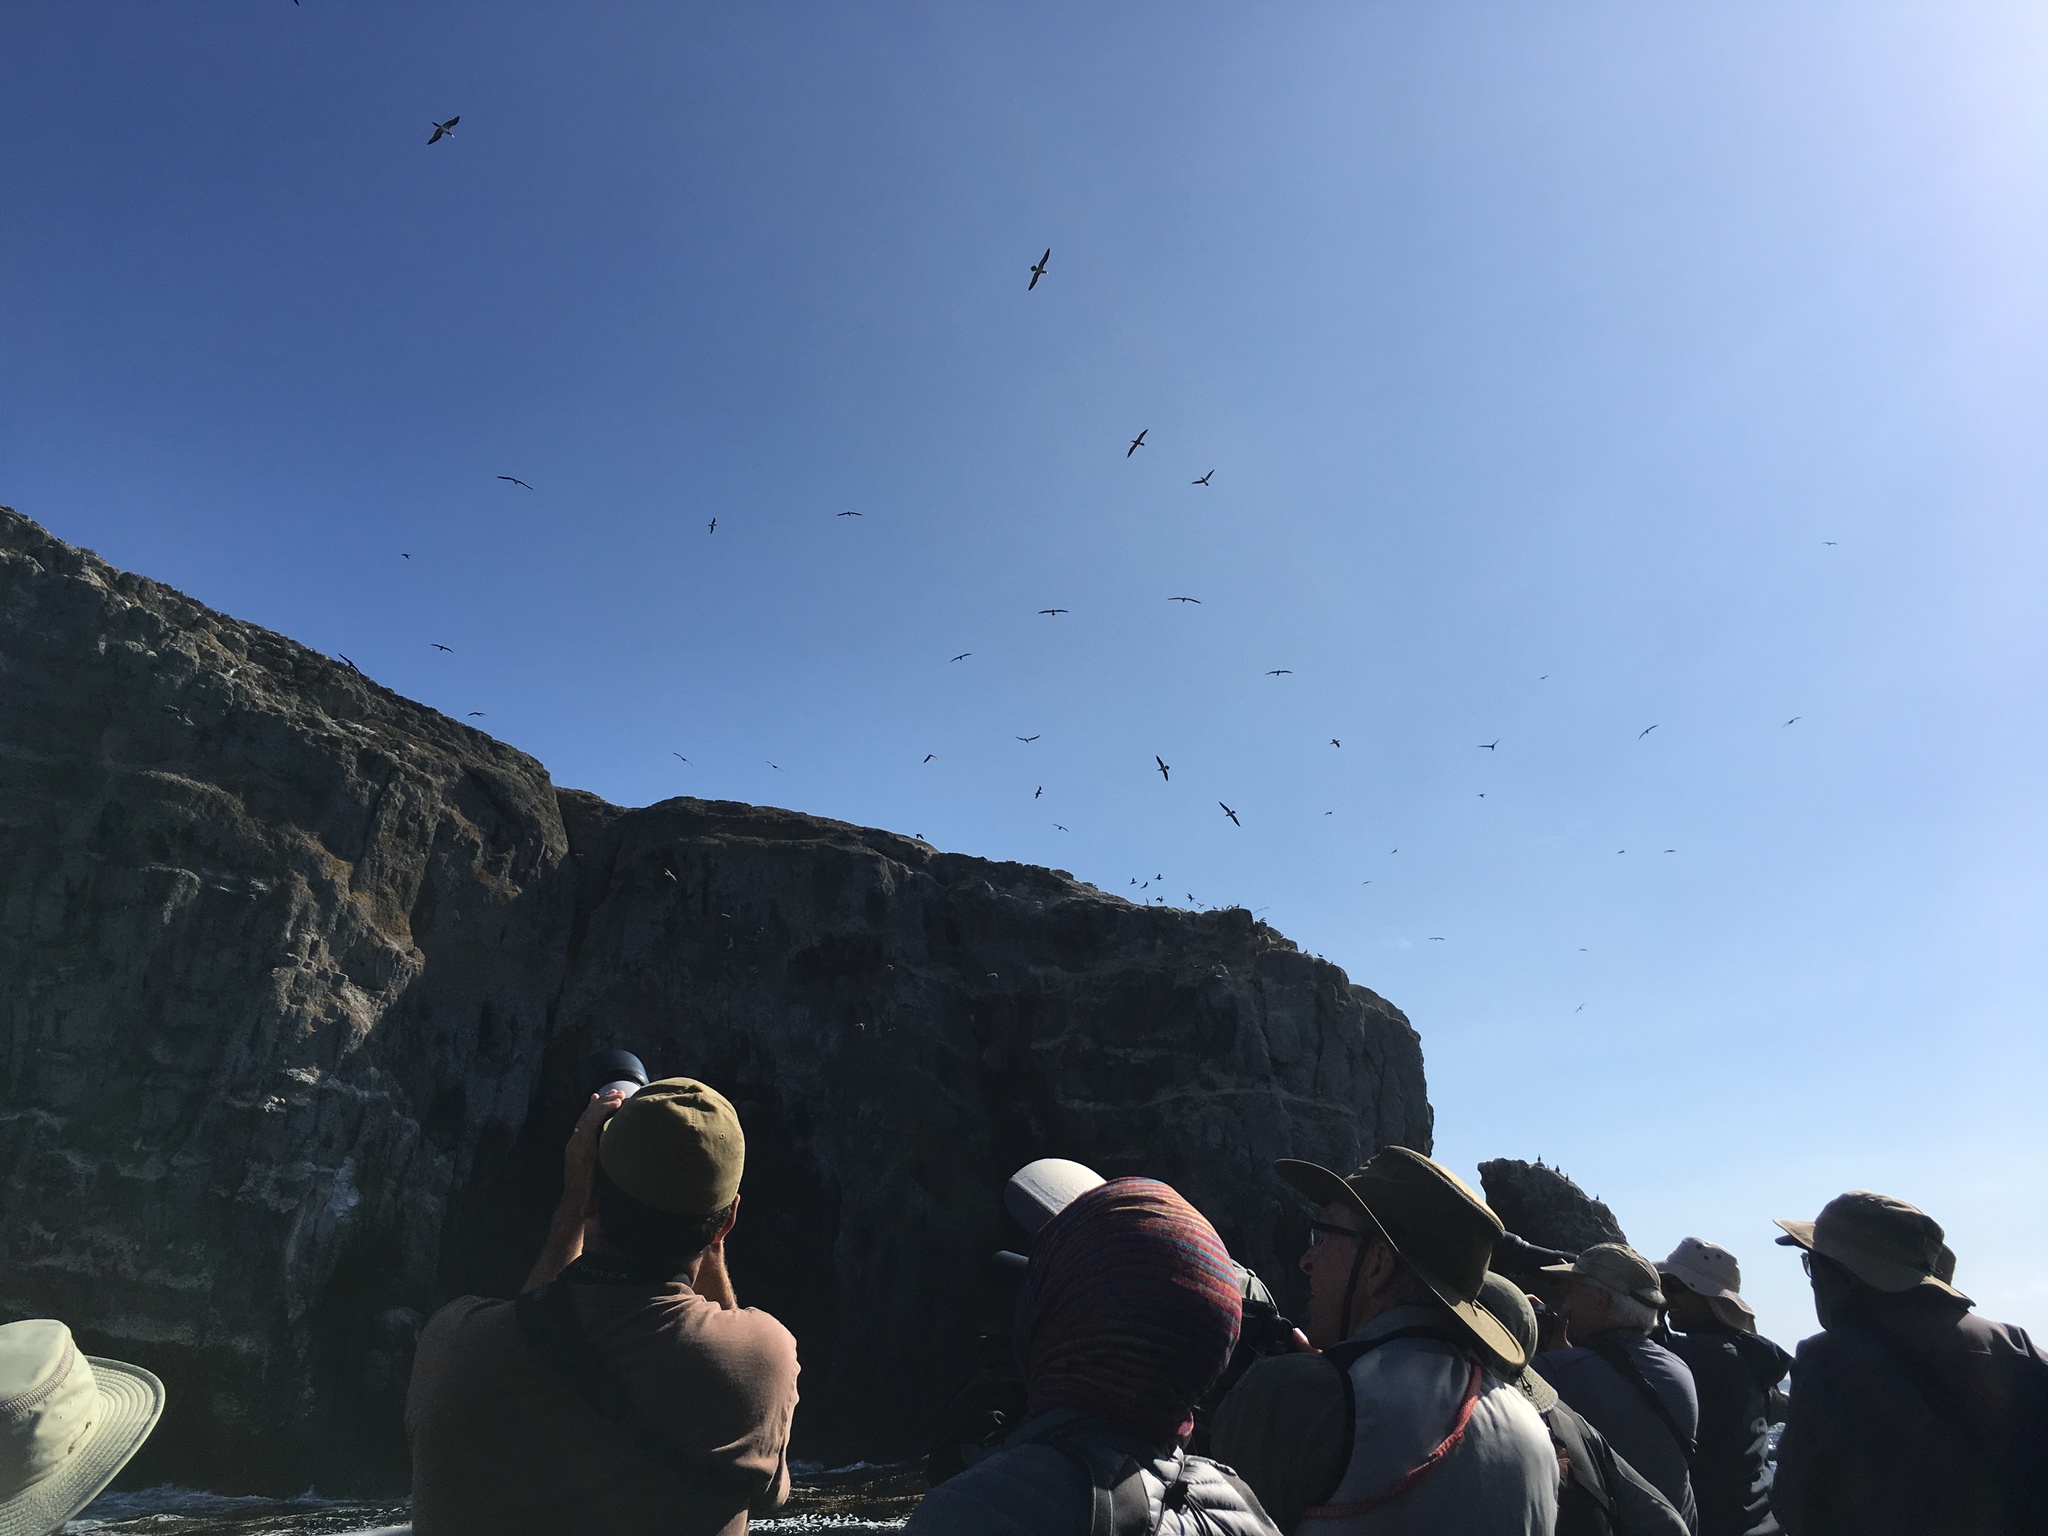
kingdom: Animalia
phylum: Chordata
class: Aves
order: Suliformes
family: Sulidae
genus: Sula
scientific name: Sula leucogaster
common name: Brown booby
